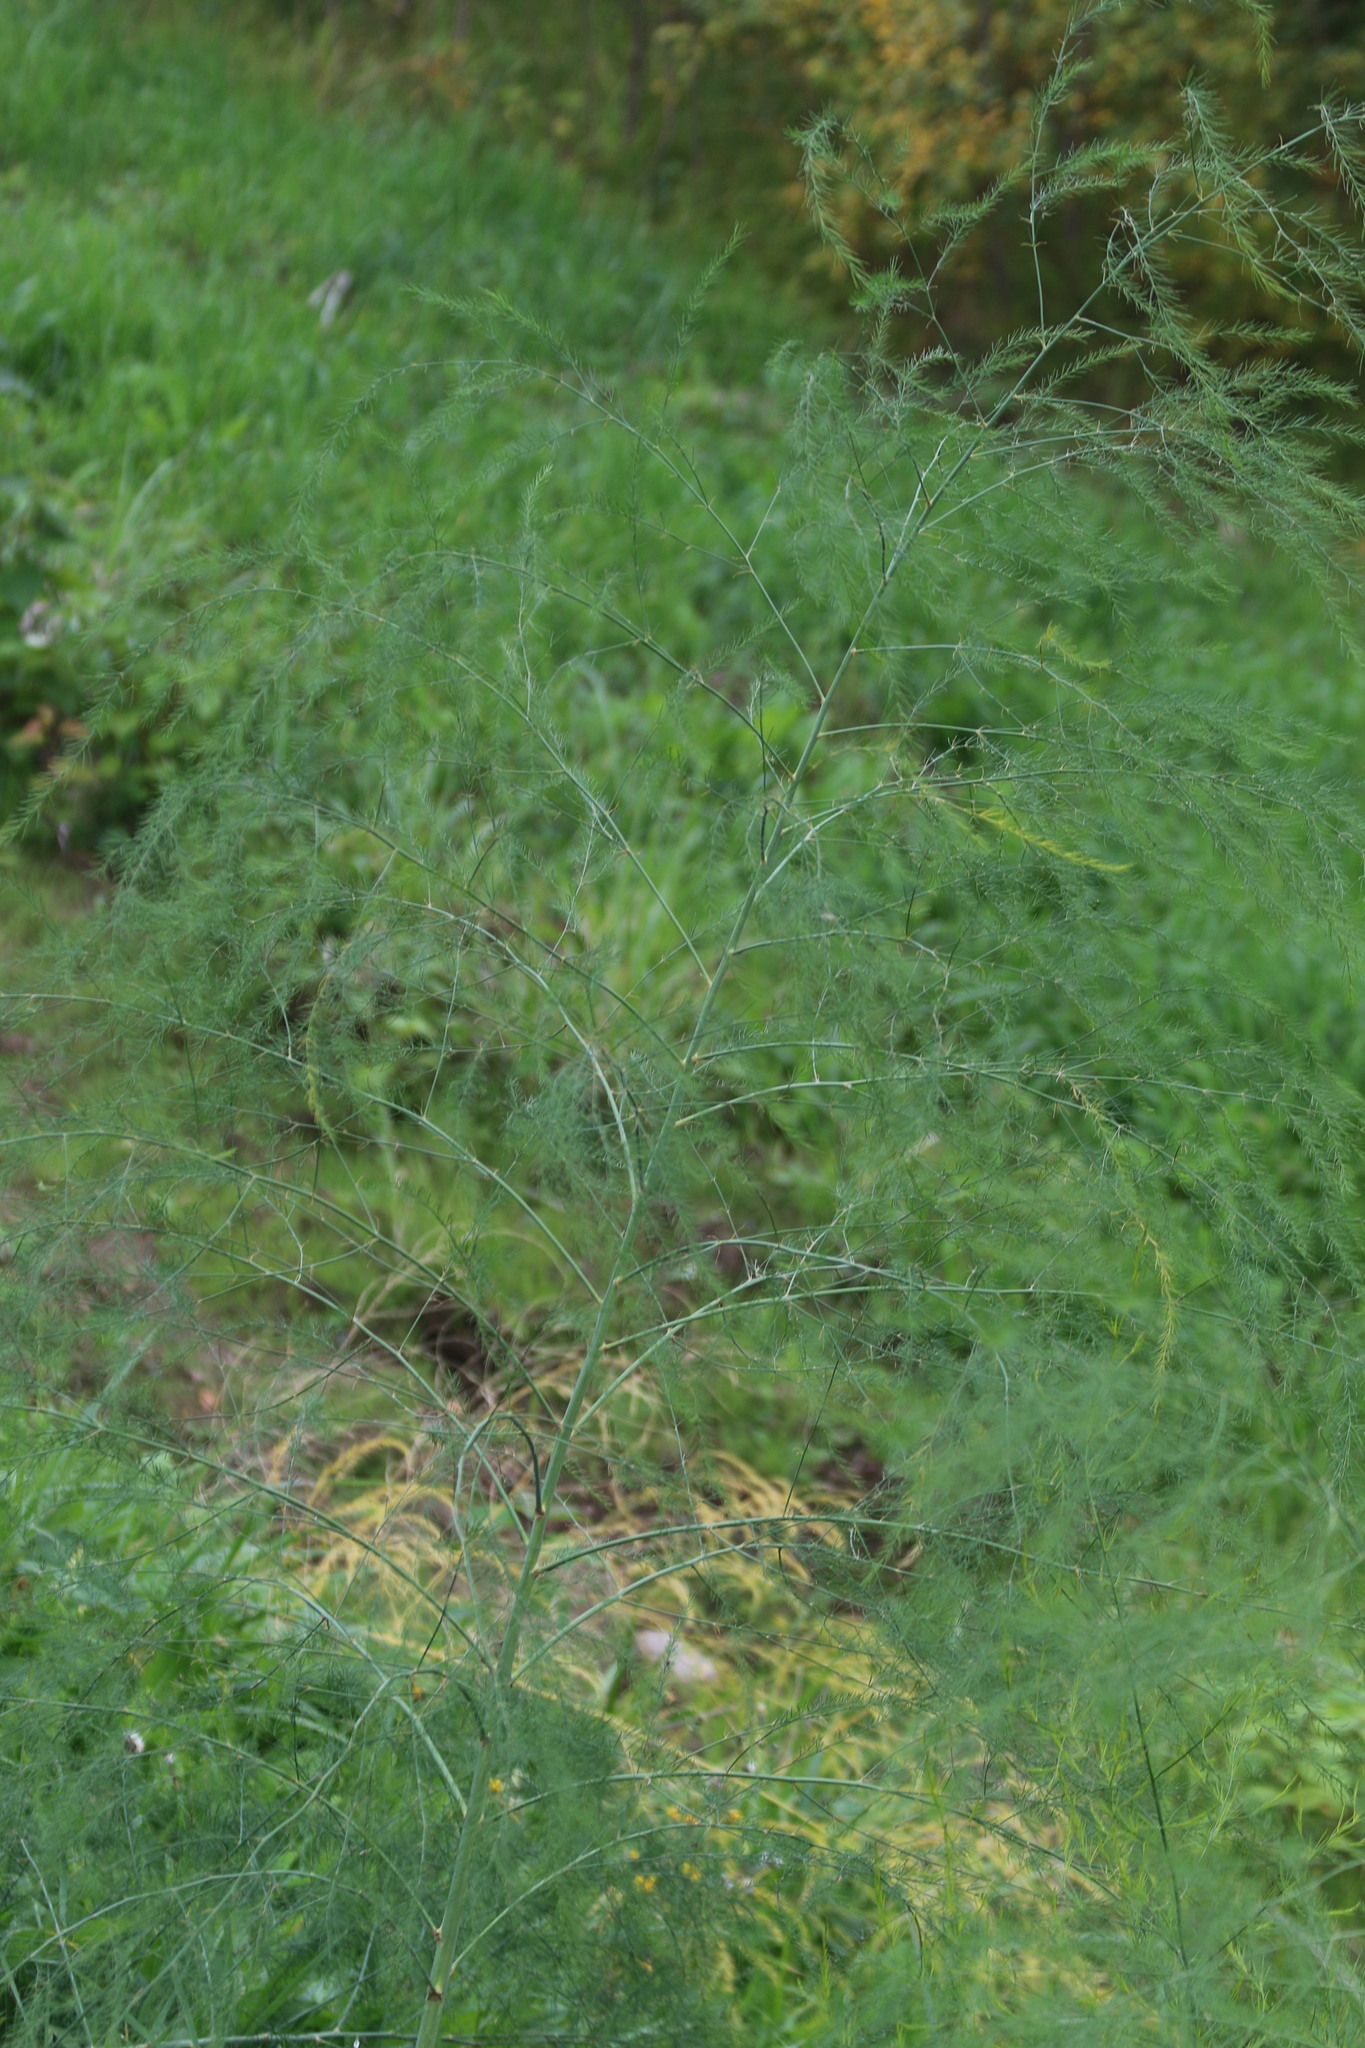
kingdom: Plantae
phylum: Tracheophyta
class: Liliopsida
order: Asparagales
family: Asparagaceae
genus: Asparagus
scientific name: Asparagus officinalis
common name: Garden asparagus
